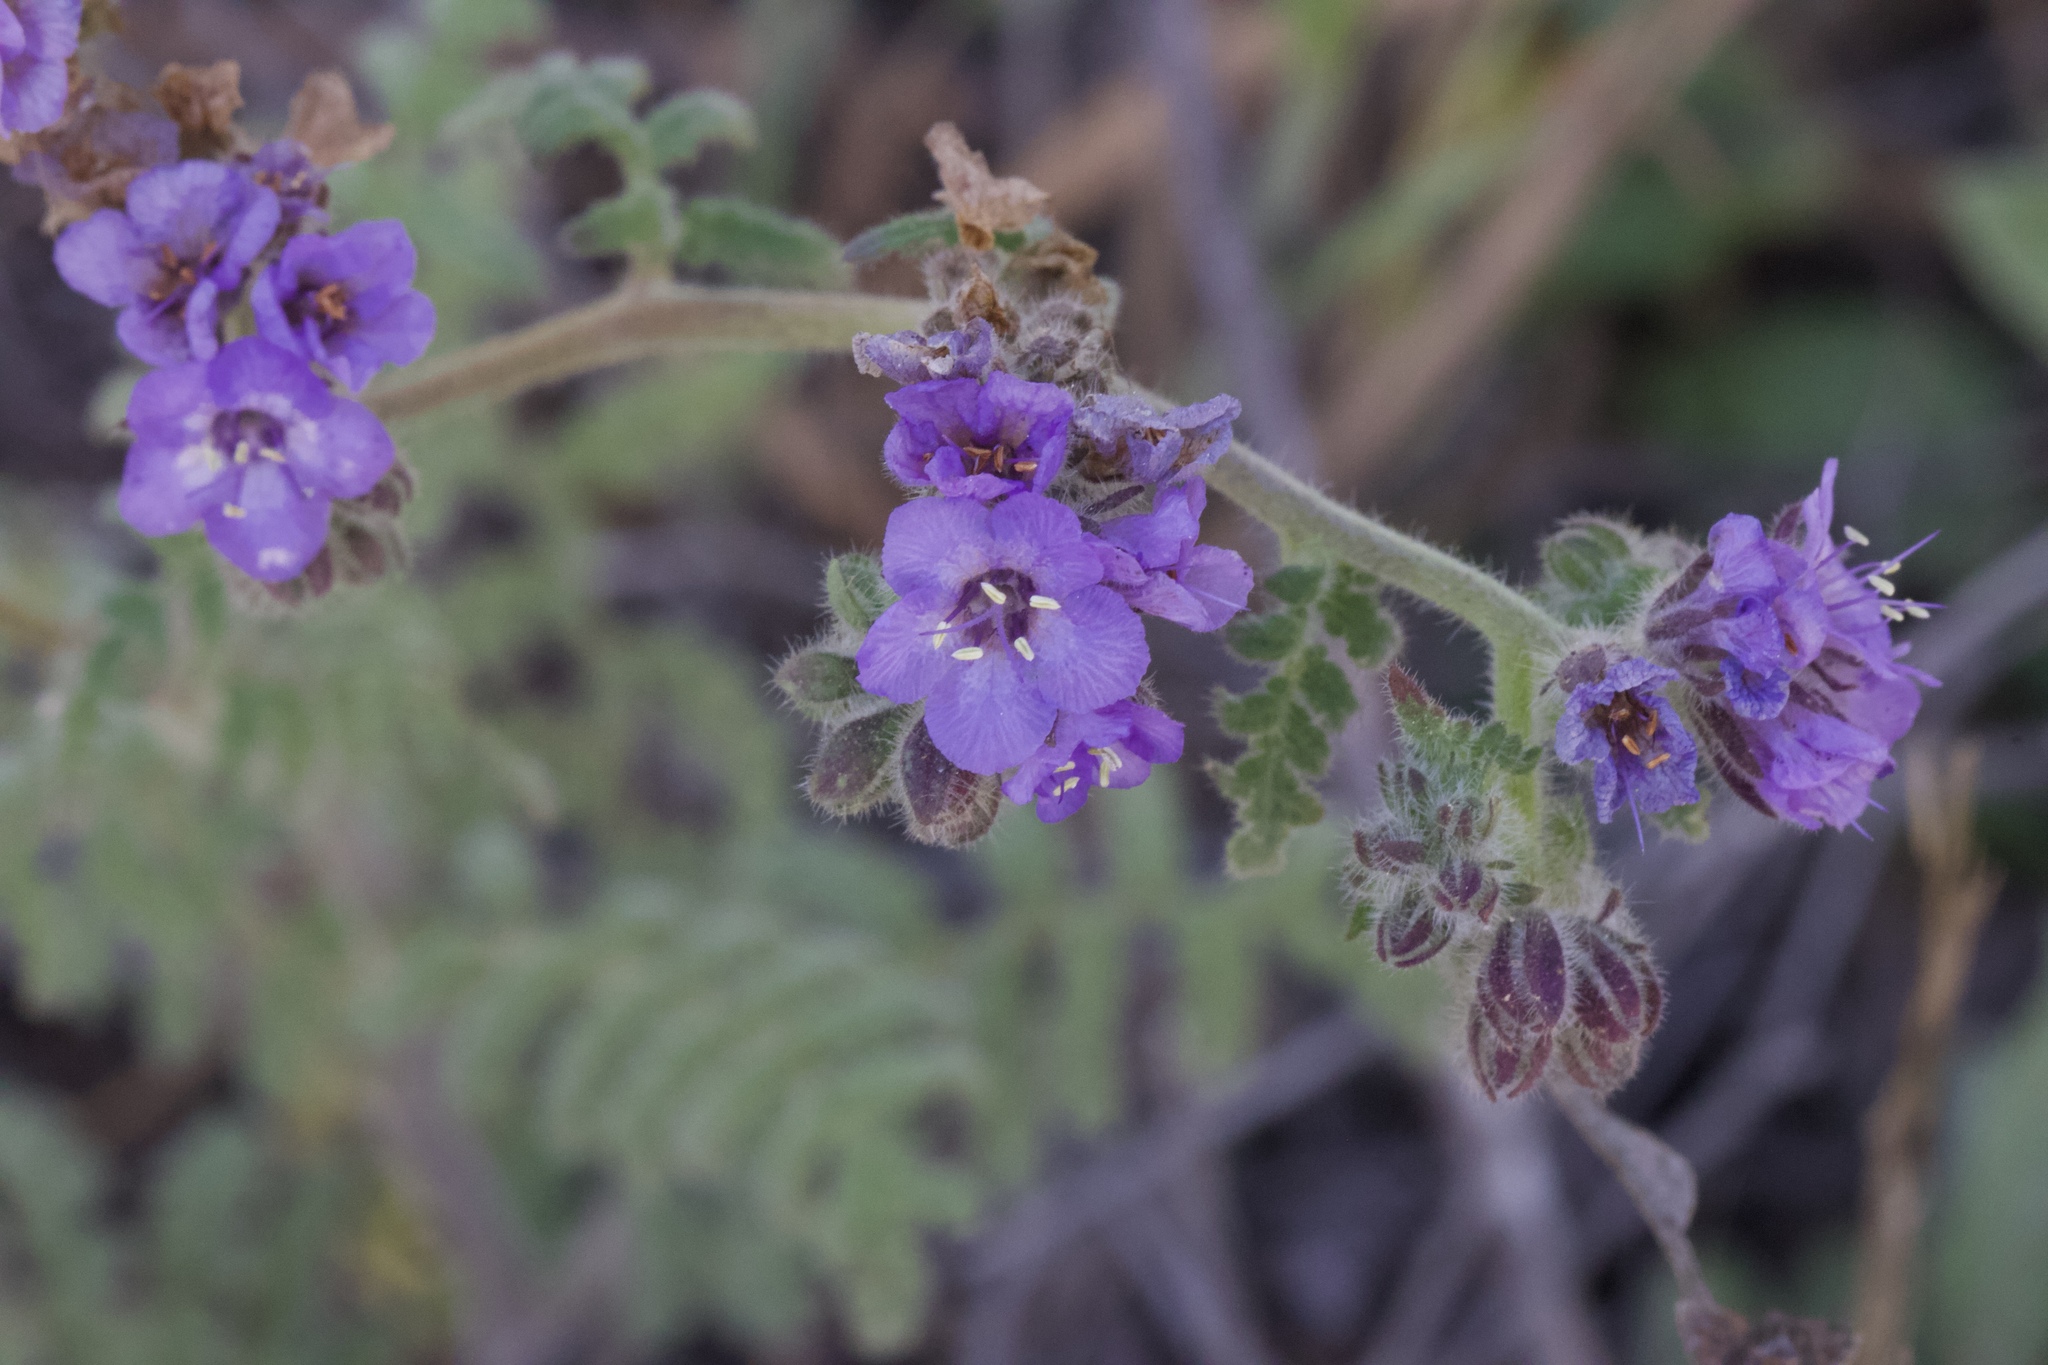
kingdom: Plantae
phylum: Tracheophyta
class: Magnoliopsida
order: Boraginales
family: Hydrophyllaceae
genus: Phacelia
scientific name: Phacelia distans
